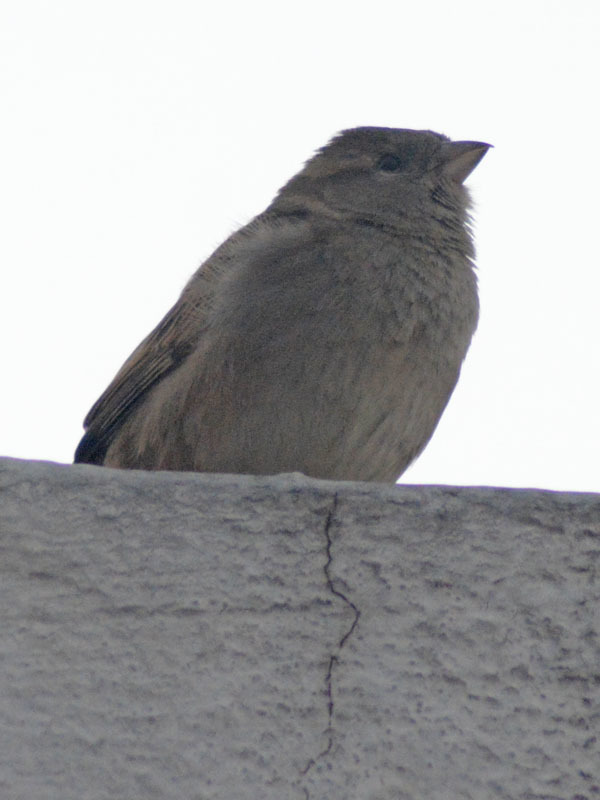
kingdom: Animalia
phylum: Chordata
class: Aves
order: Passeriformes
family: Passeridae
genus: Passer
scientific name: Passer domesticus
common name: House sparrow
